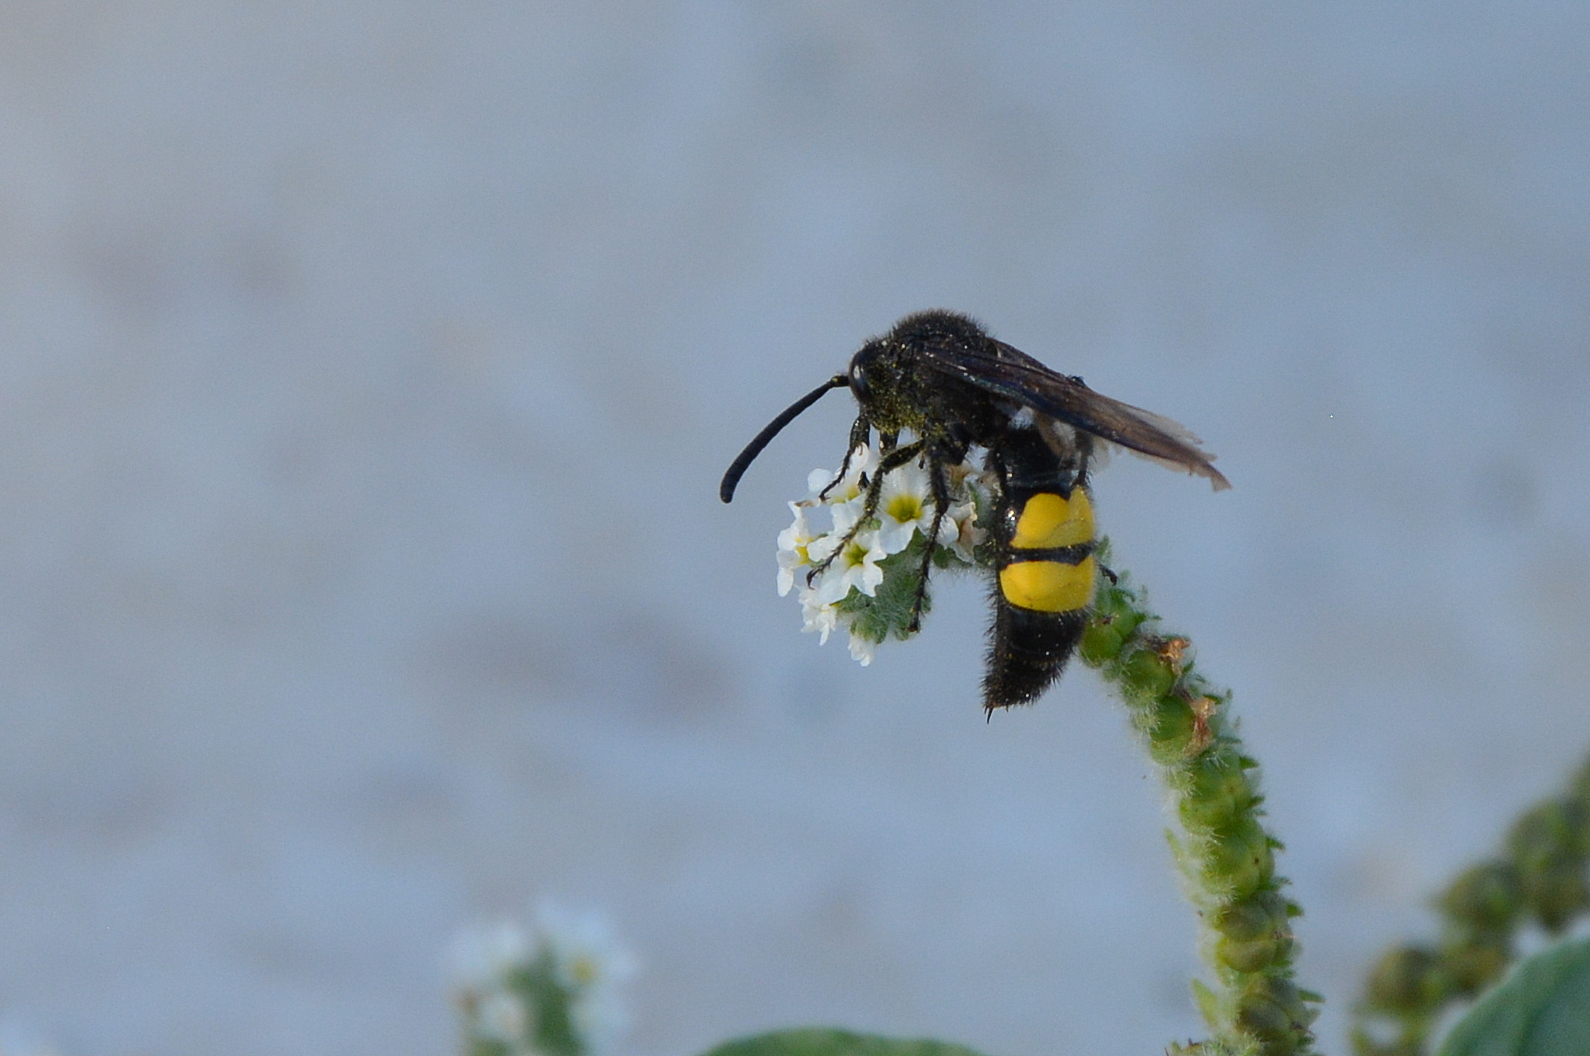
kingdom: Animalia
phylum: Arthropoda
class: Insecta
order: Hymenoptera
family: Scoliidae
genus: Scolia
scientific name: Scolia hirta
